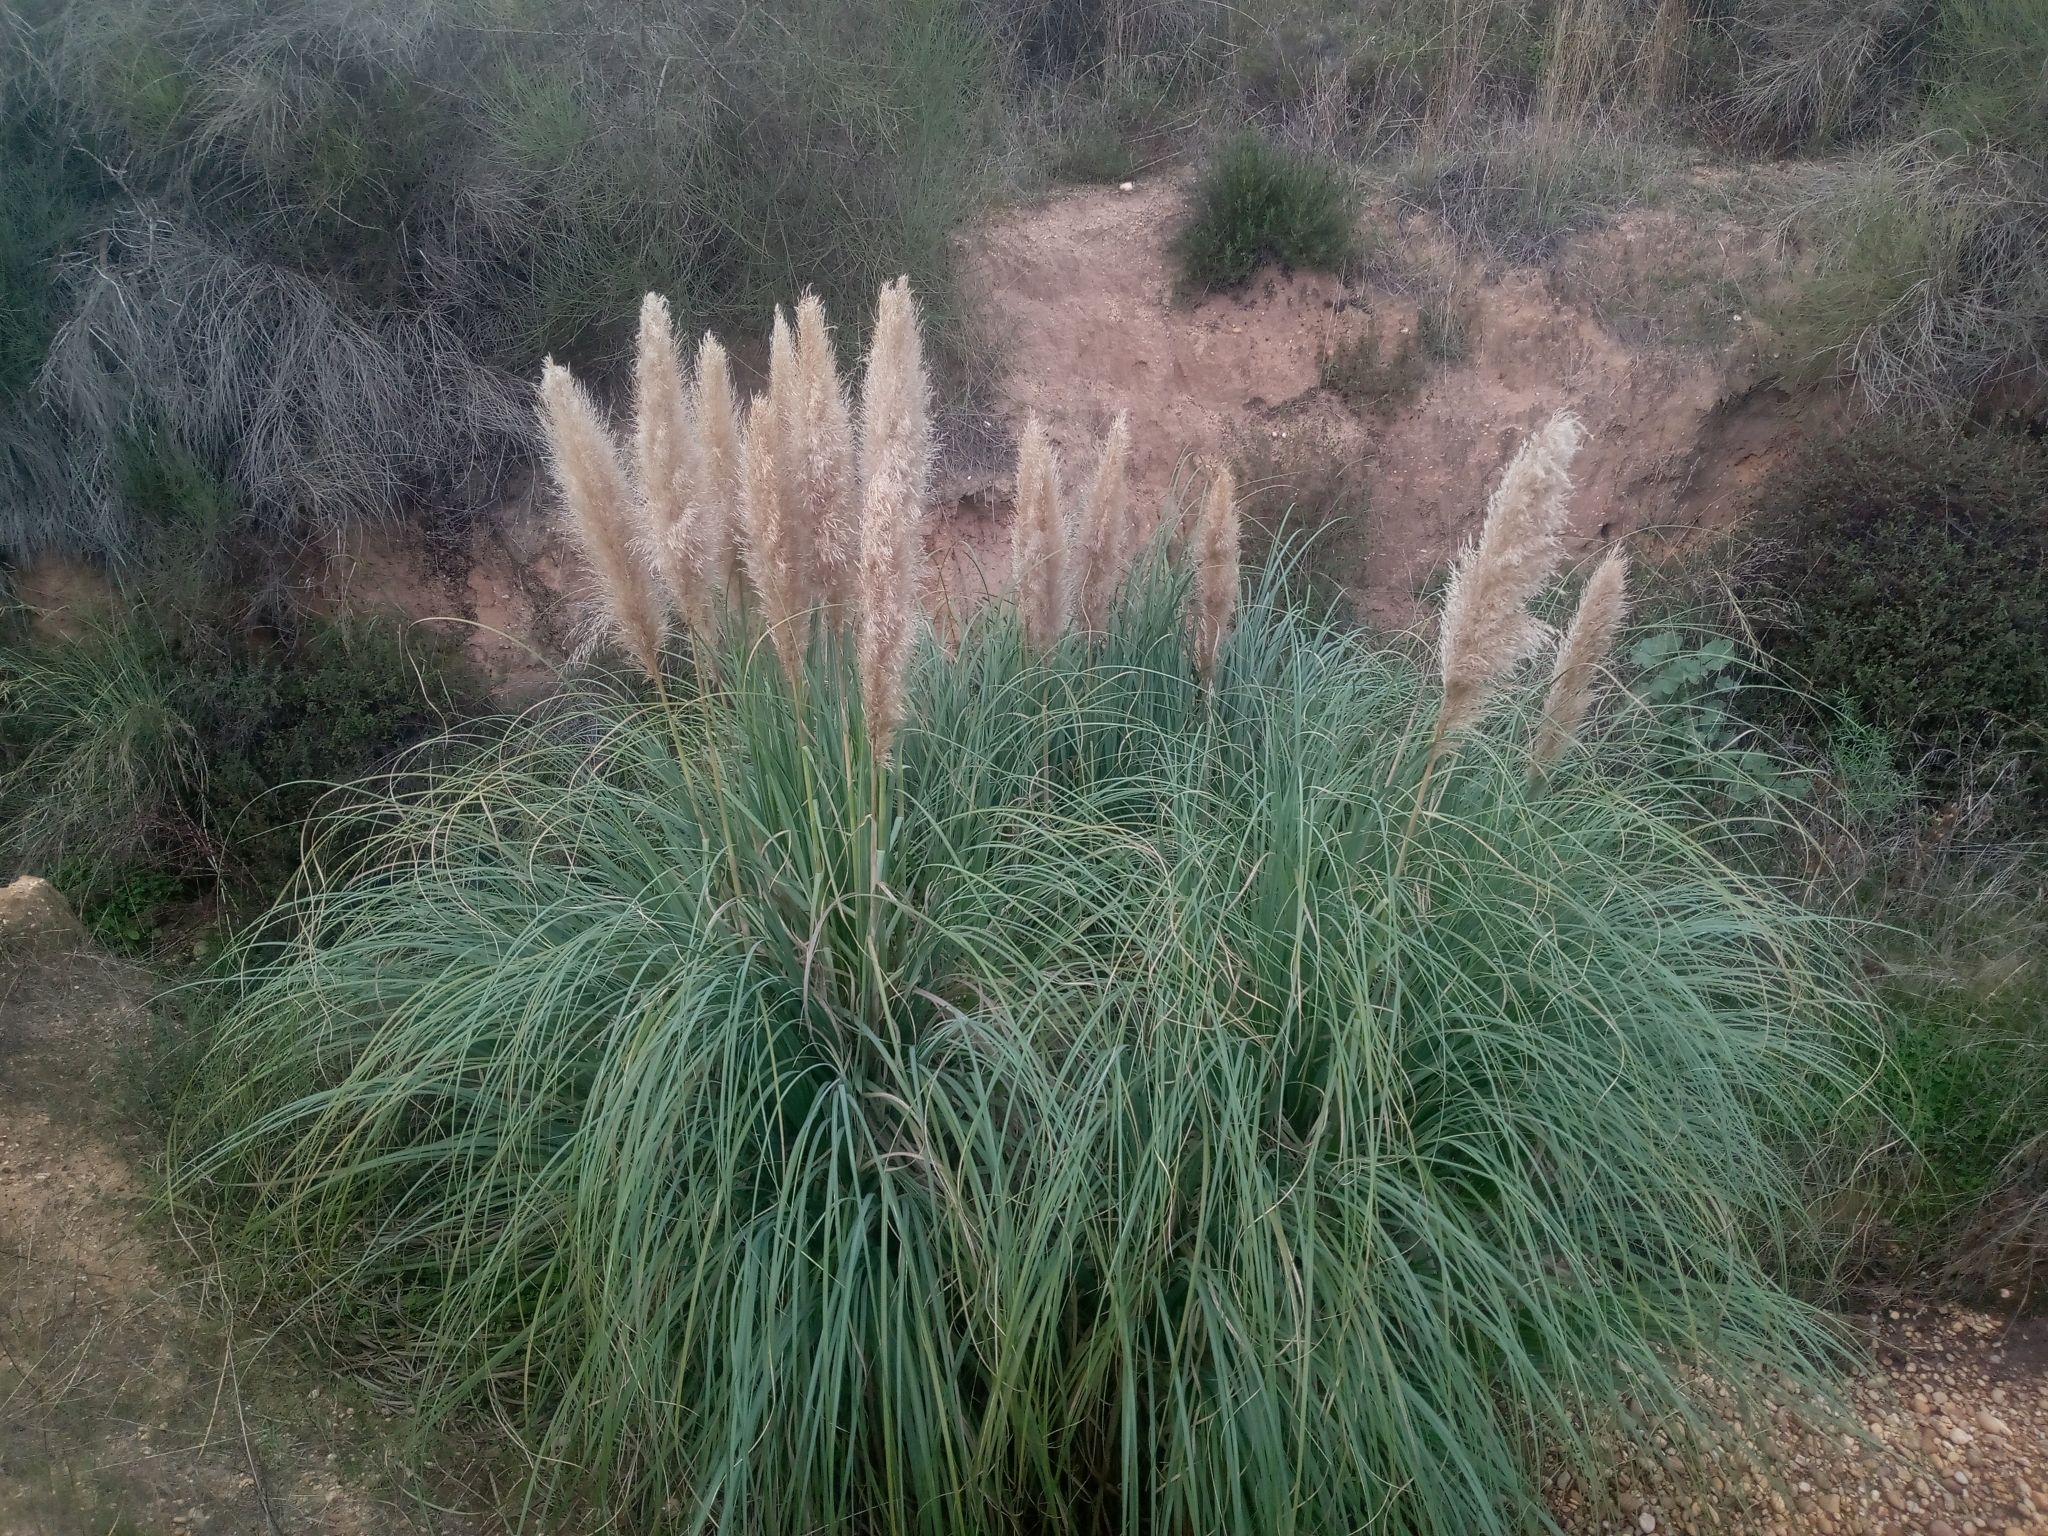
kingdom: Plantae
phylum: Tracheophyta
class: Liliopsida
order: Poales
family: Poaceae
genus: Cortaderia
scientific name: Cortaderia selloana
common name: Uruguayan pampas grass
